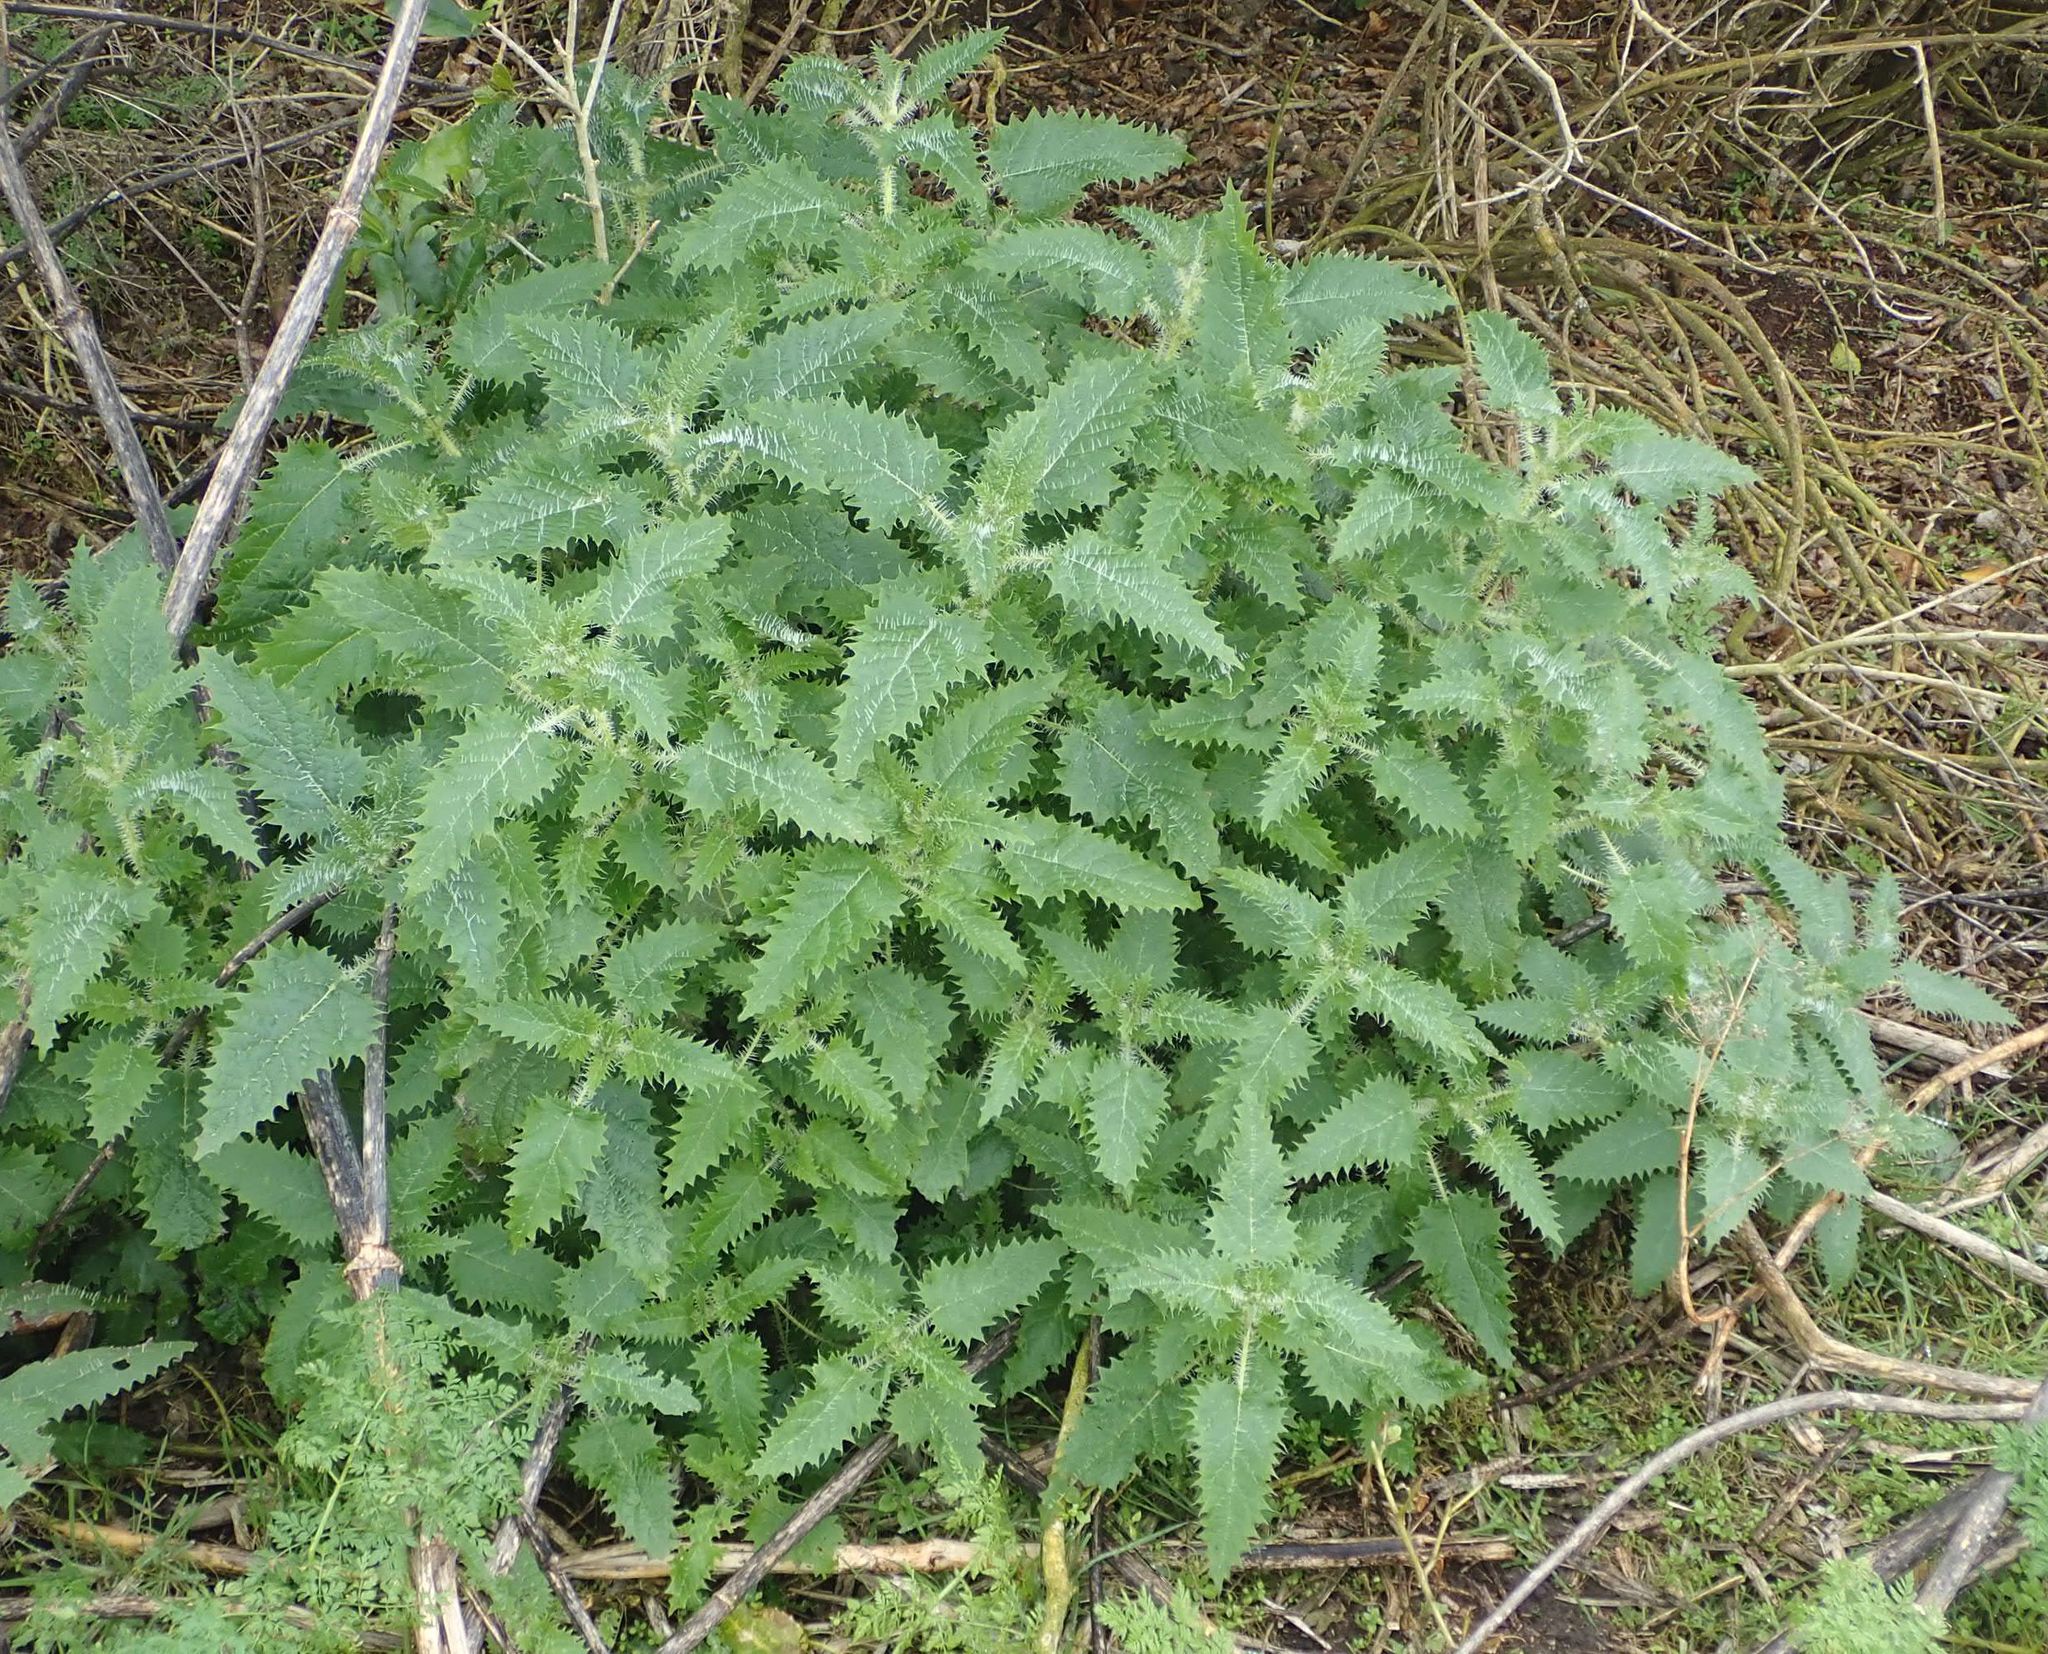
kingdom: Plantae
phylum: Tracheophyta
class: Magnoliopsida
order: Rosales
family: Urticaceae
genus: Urtica
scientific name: Urtica ferox
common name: Tree nettle
